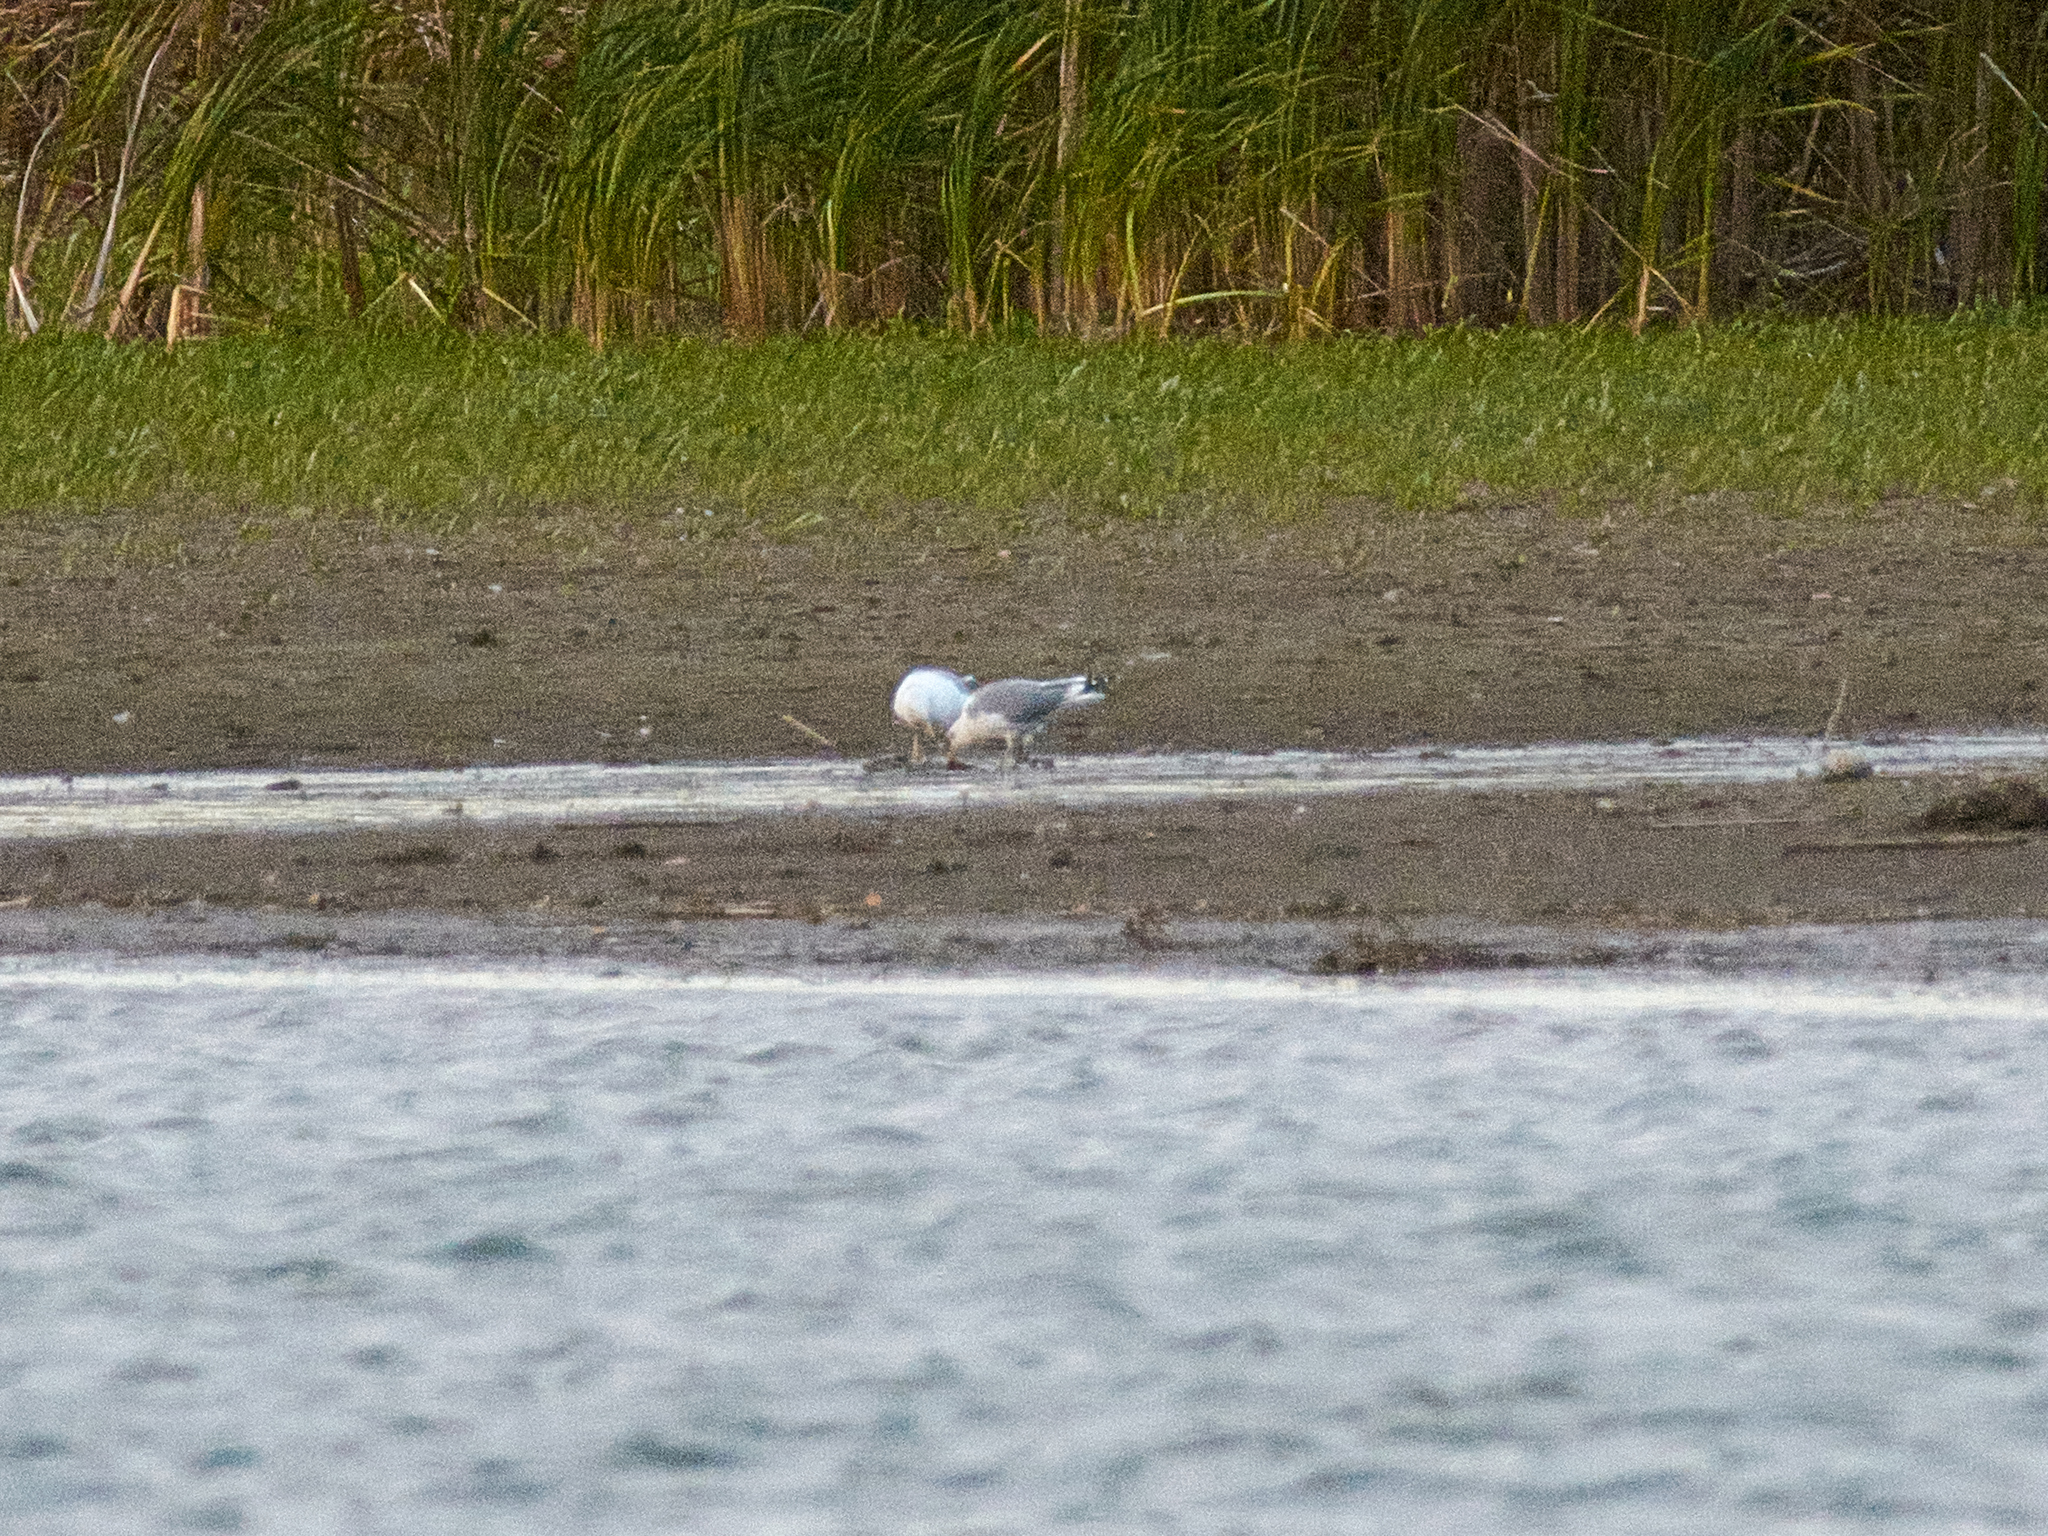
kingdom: Animalia
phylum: Chordata
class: Aves
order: Charadriiformes
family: Laridae
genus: Larus
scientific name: Larus cachinnans
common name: Caspian gull
